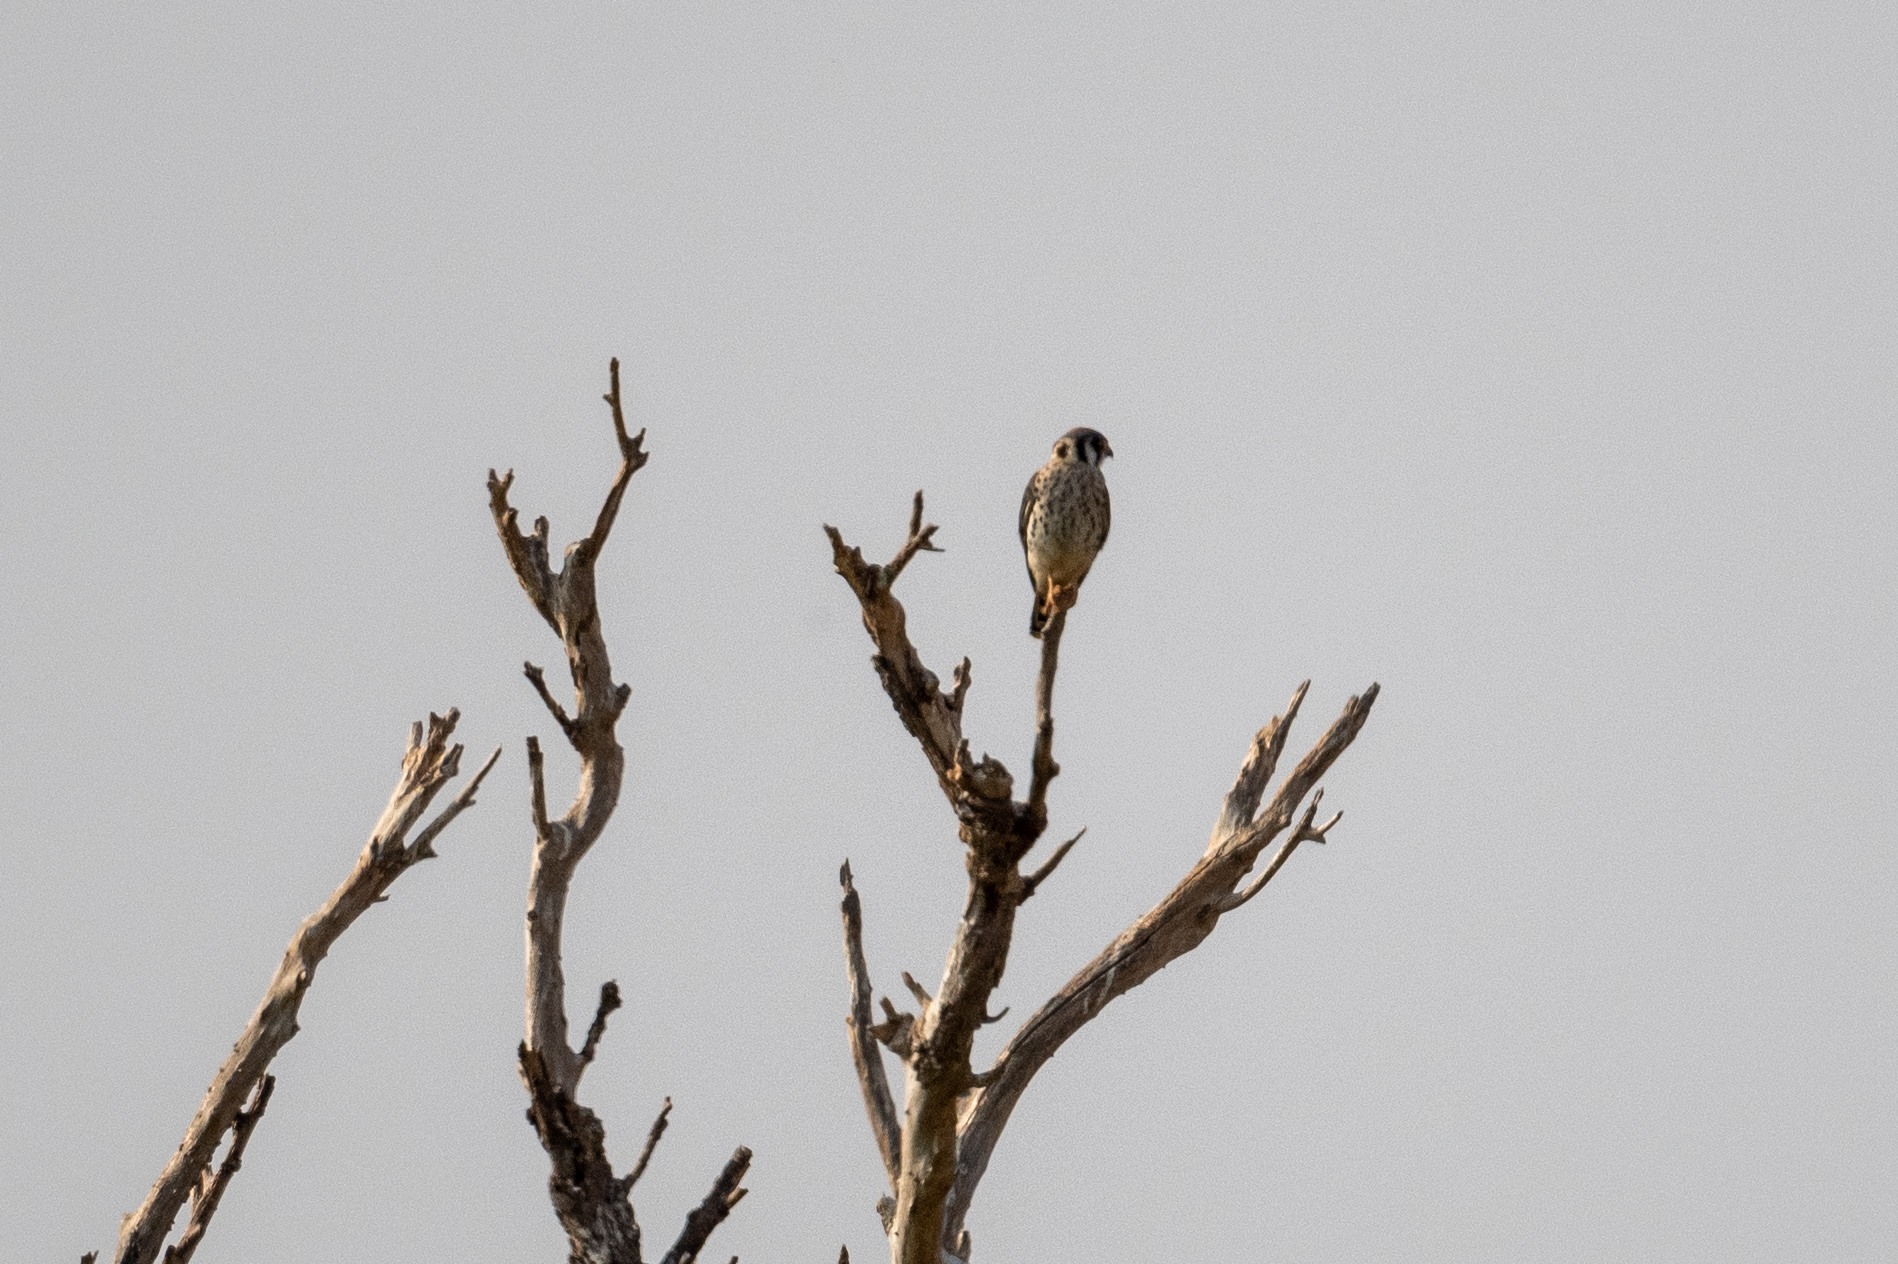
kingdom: Animalia
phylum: Chordata
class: Aves
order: Falconiformes
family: Falconidae
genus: Falco
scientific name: Falco sparverius
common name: American kestrel
